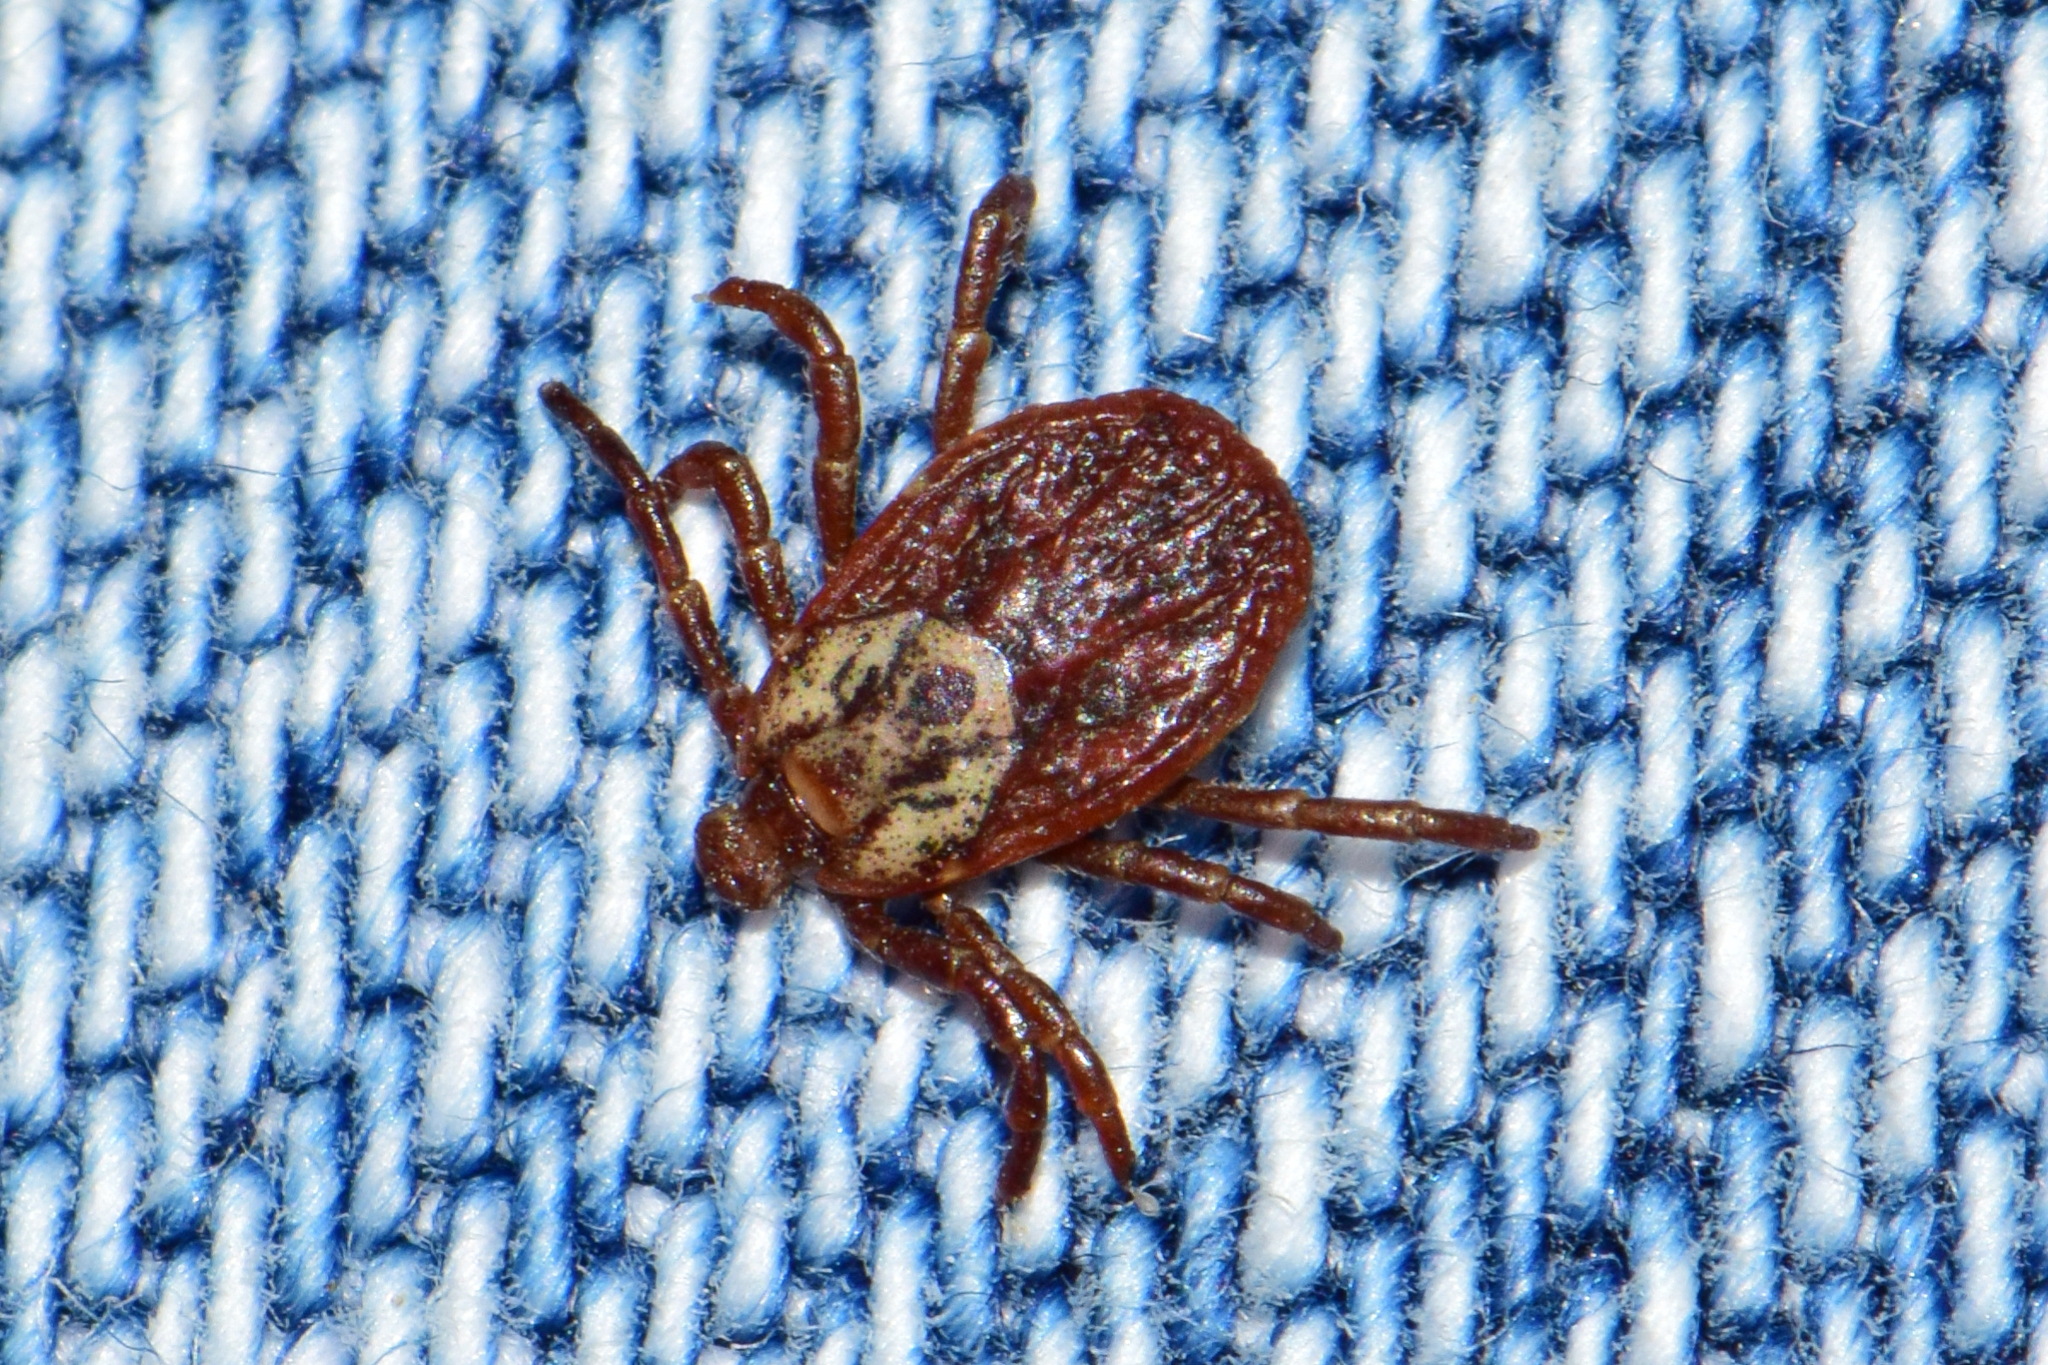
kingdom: Animalia
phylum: Arthropoda
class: Arachnida
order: Ixodida
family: Ixodidae
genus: Dermacentor
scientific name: Dermacentor reticulatus
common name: Ornate cow tick
